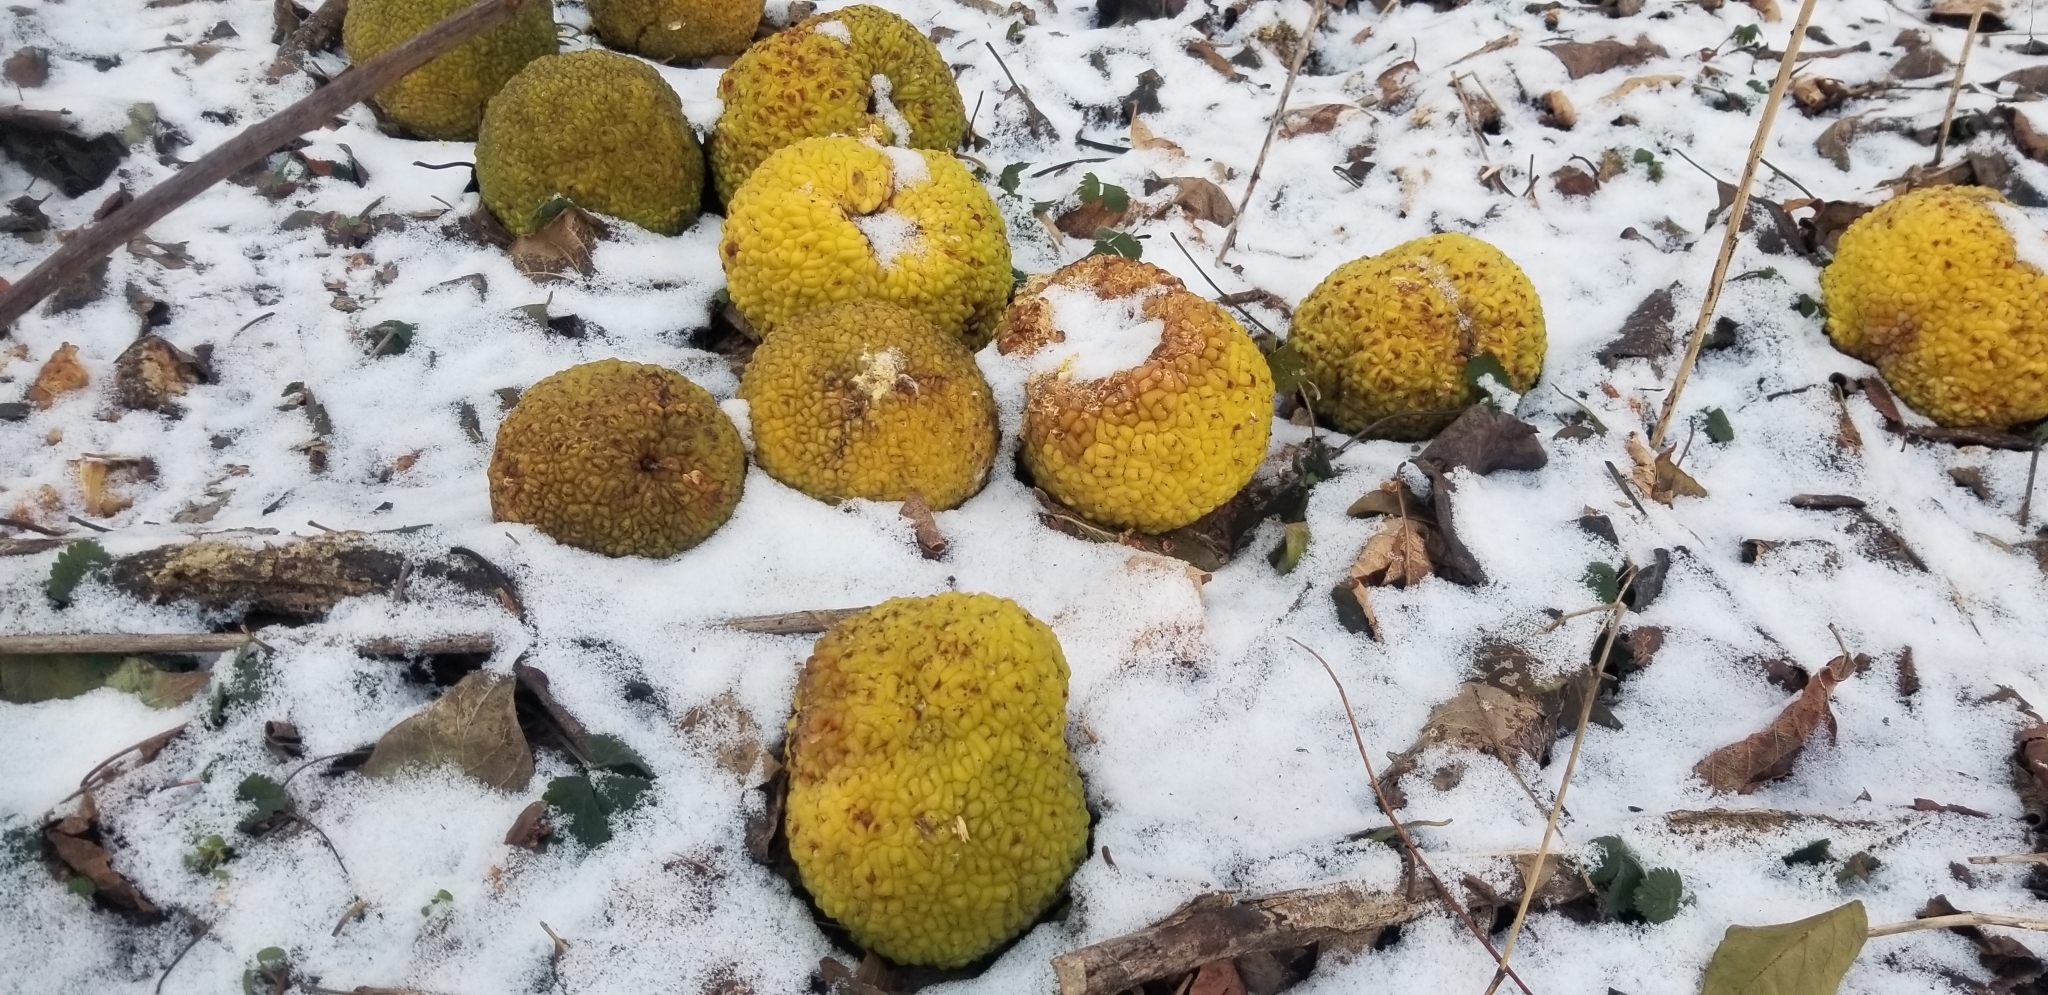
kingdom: Plantae
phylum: Tracheophyta
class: Magnoliopsida
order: Rosales
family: Moraceae
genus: Maclura
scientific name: Maclura pomifera
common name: Osage-orange
